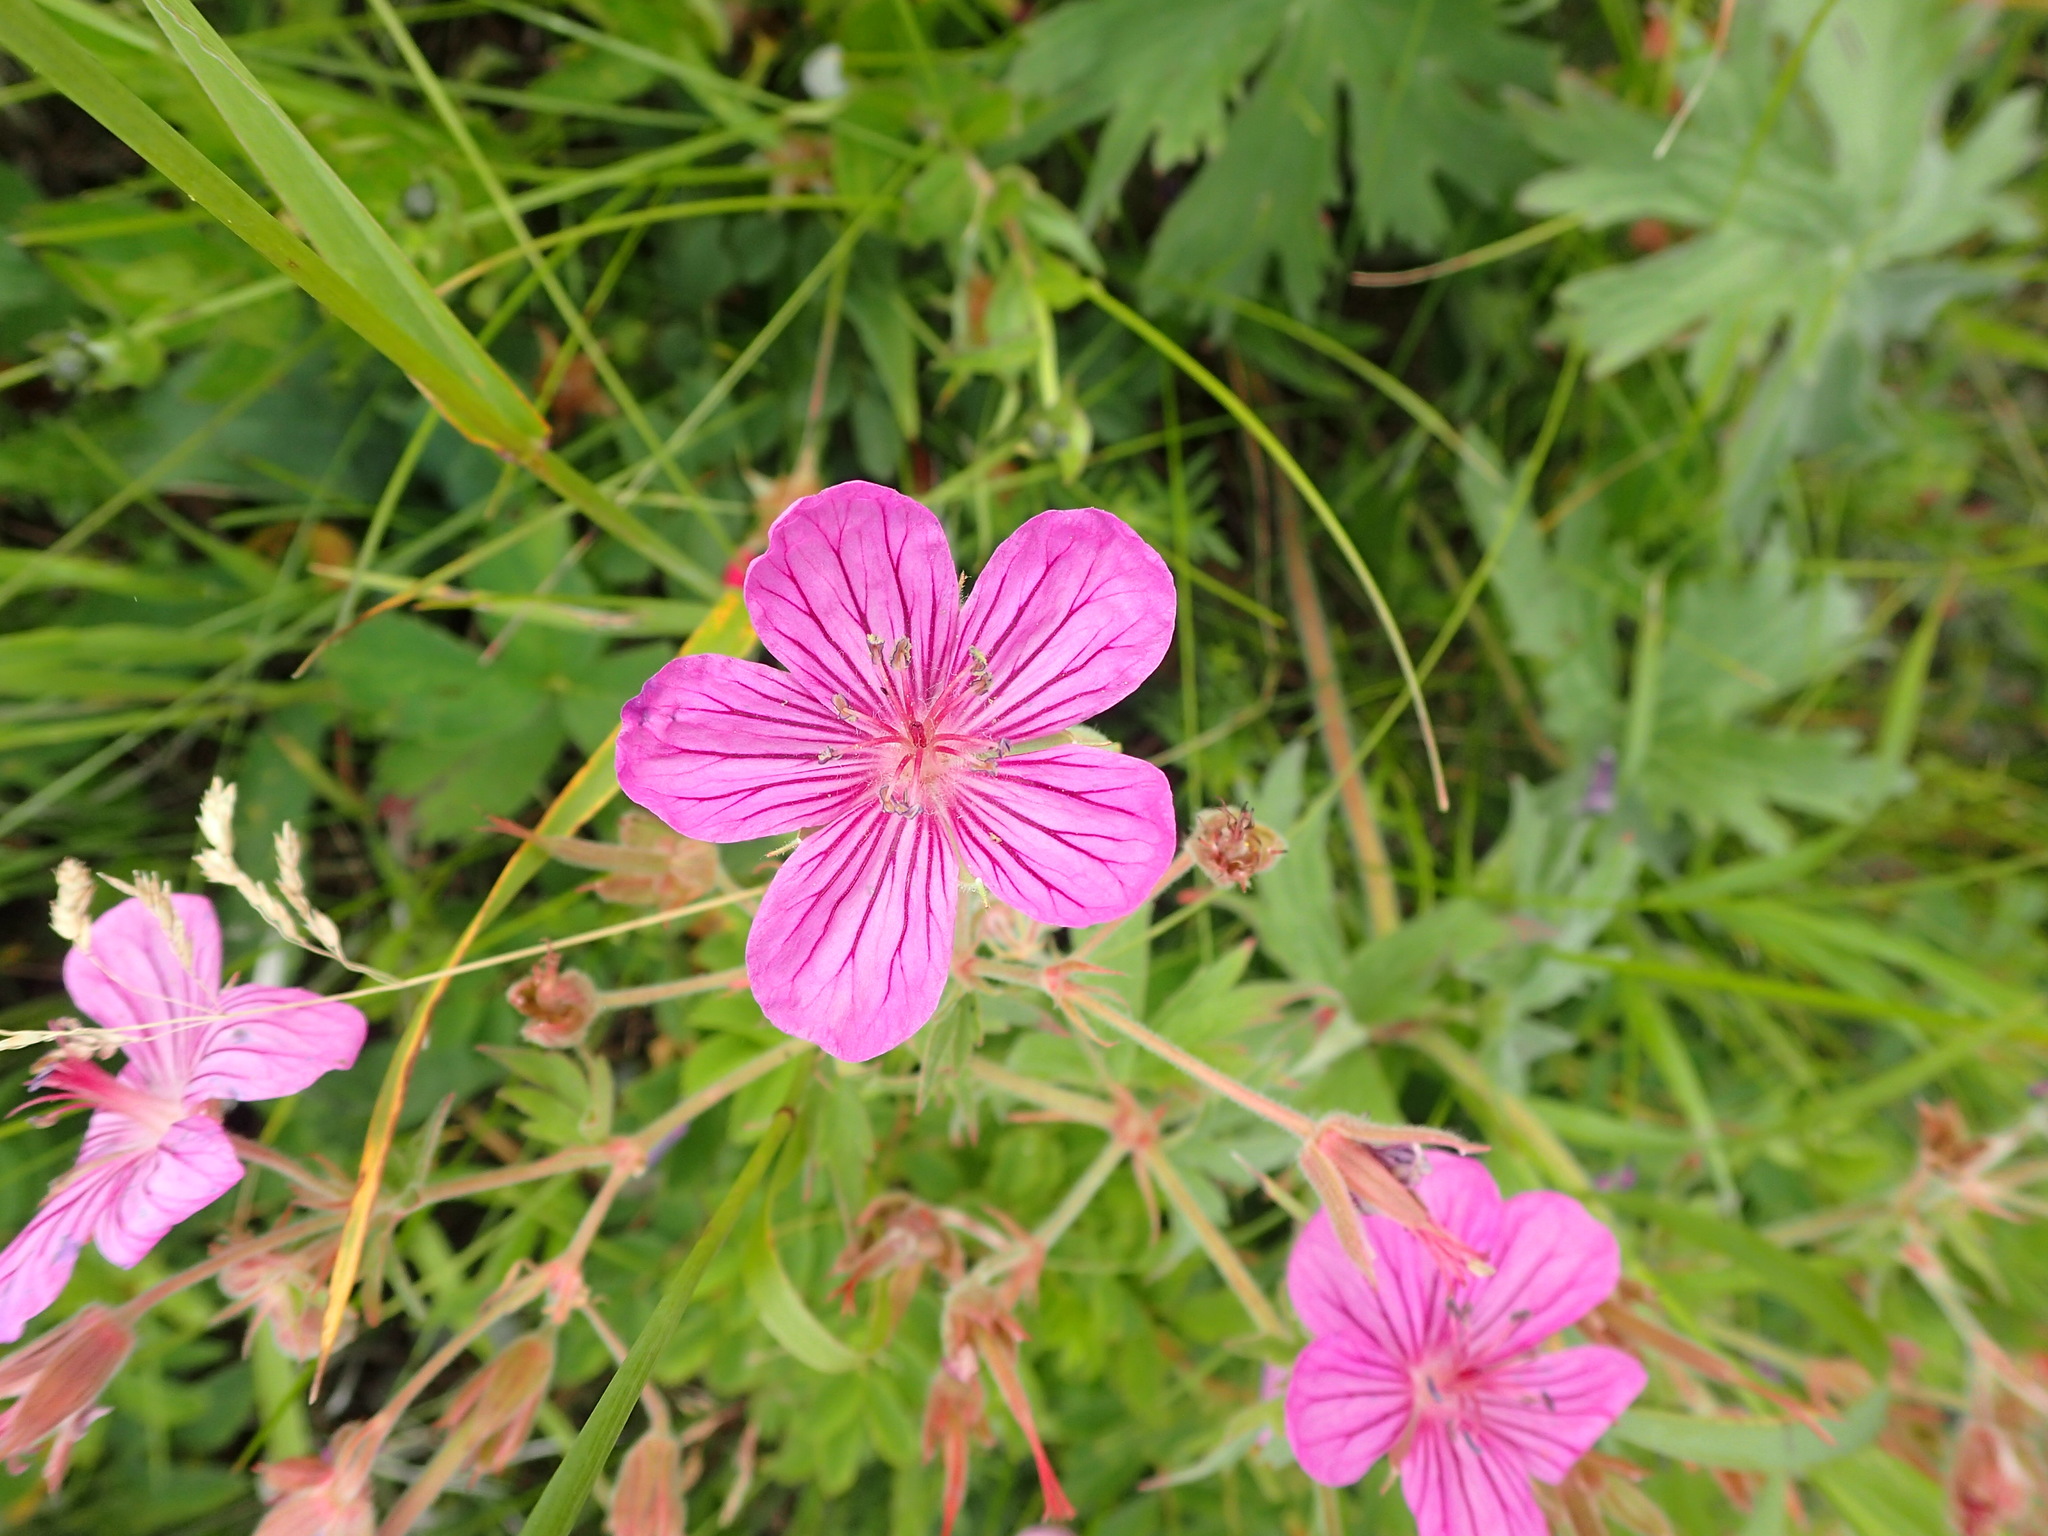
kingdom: Plantae
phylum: Tracheophyta
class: Magnoliopsida
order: Geraniales
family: Geraniaceae
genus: Geranium
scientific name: Geranium viscosissimum
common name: Purple geranium
